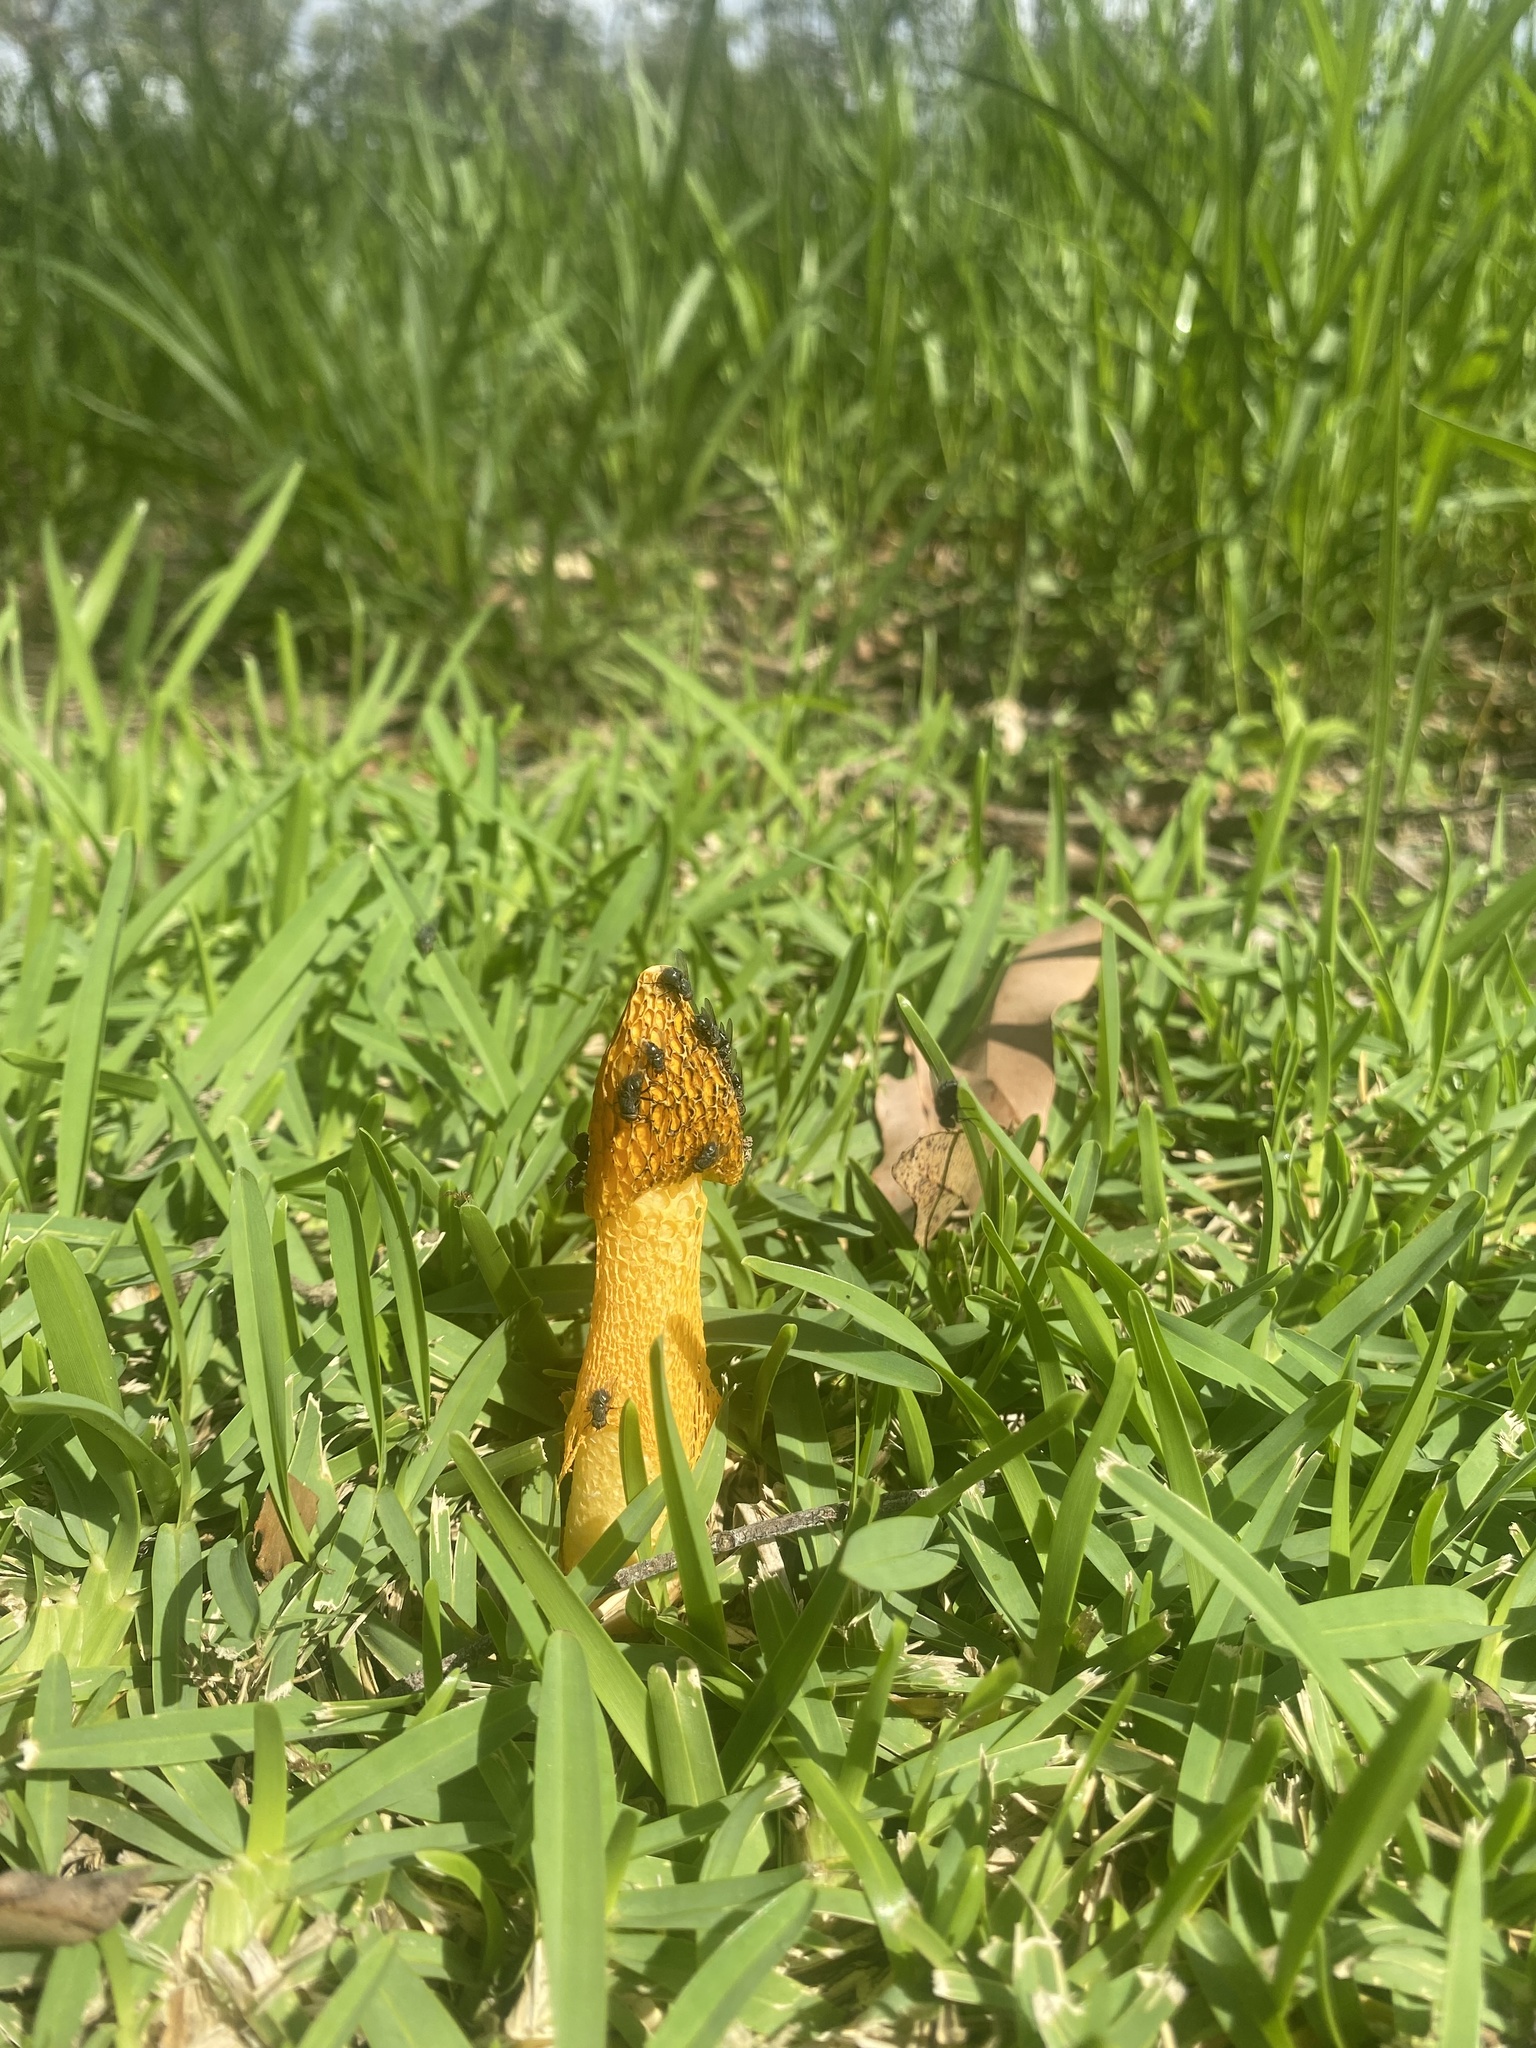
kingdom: Fungi
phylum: Basidiomycota
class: Agaricomycetes
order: Phallales
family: Phallaceae
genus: Phallus
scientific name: Phallus multicolor
